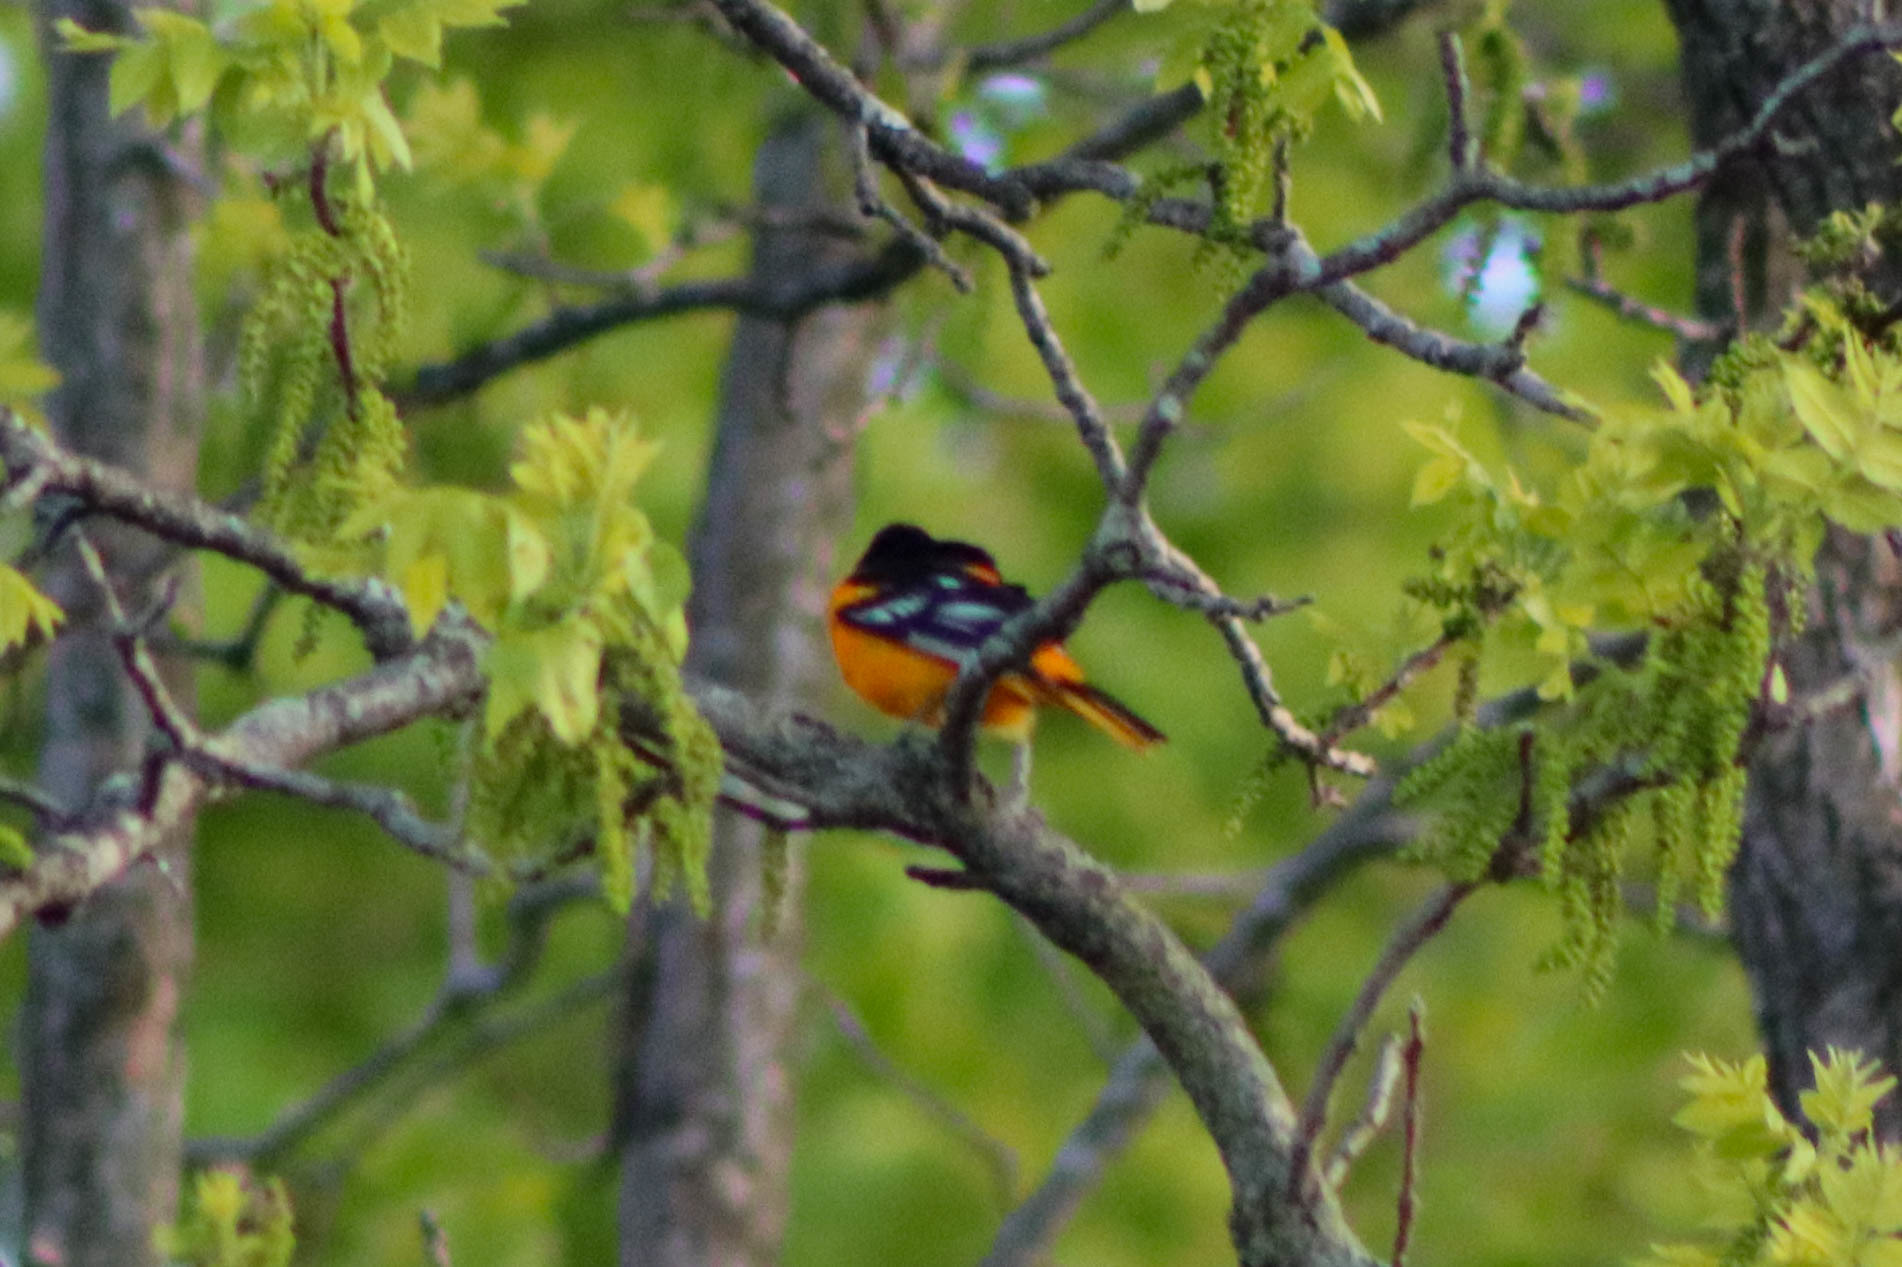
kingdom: Animalia
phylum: Chordata
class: Aves
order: Passeriformes
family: Icteridae
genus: Icterus
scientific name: Icterus galbula
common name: Baltimore oriole
